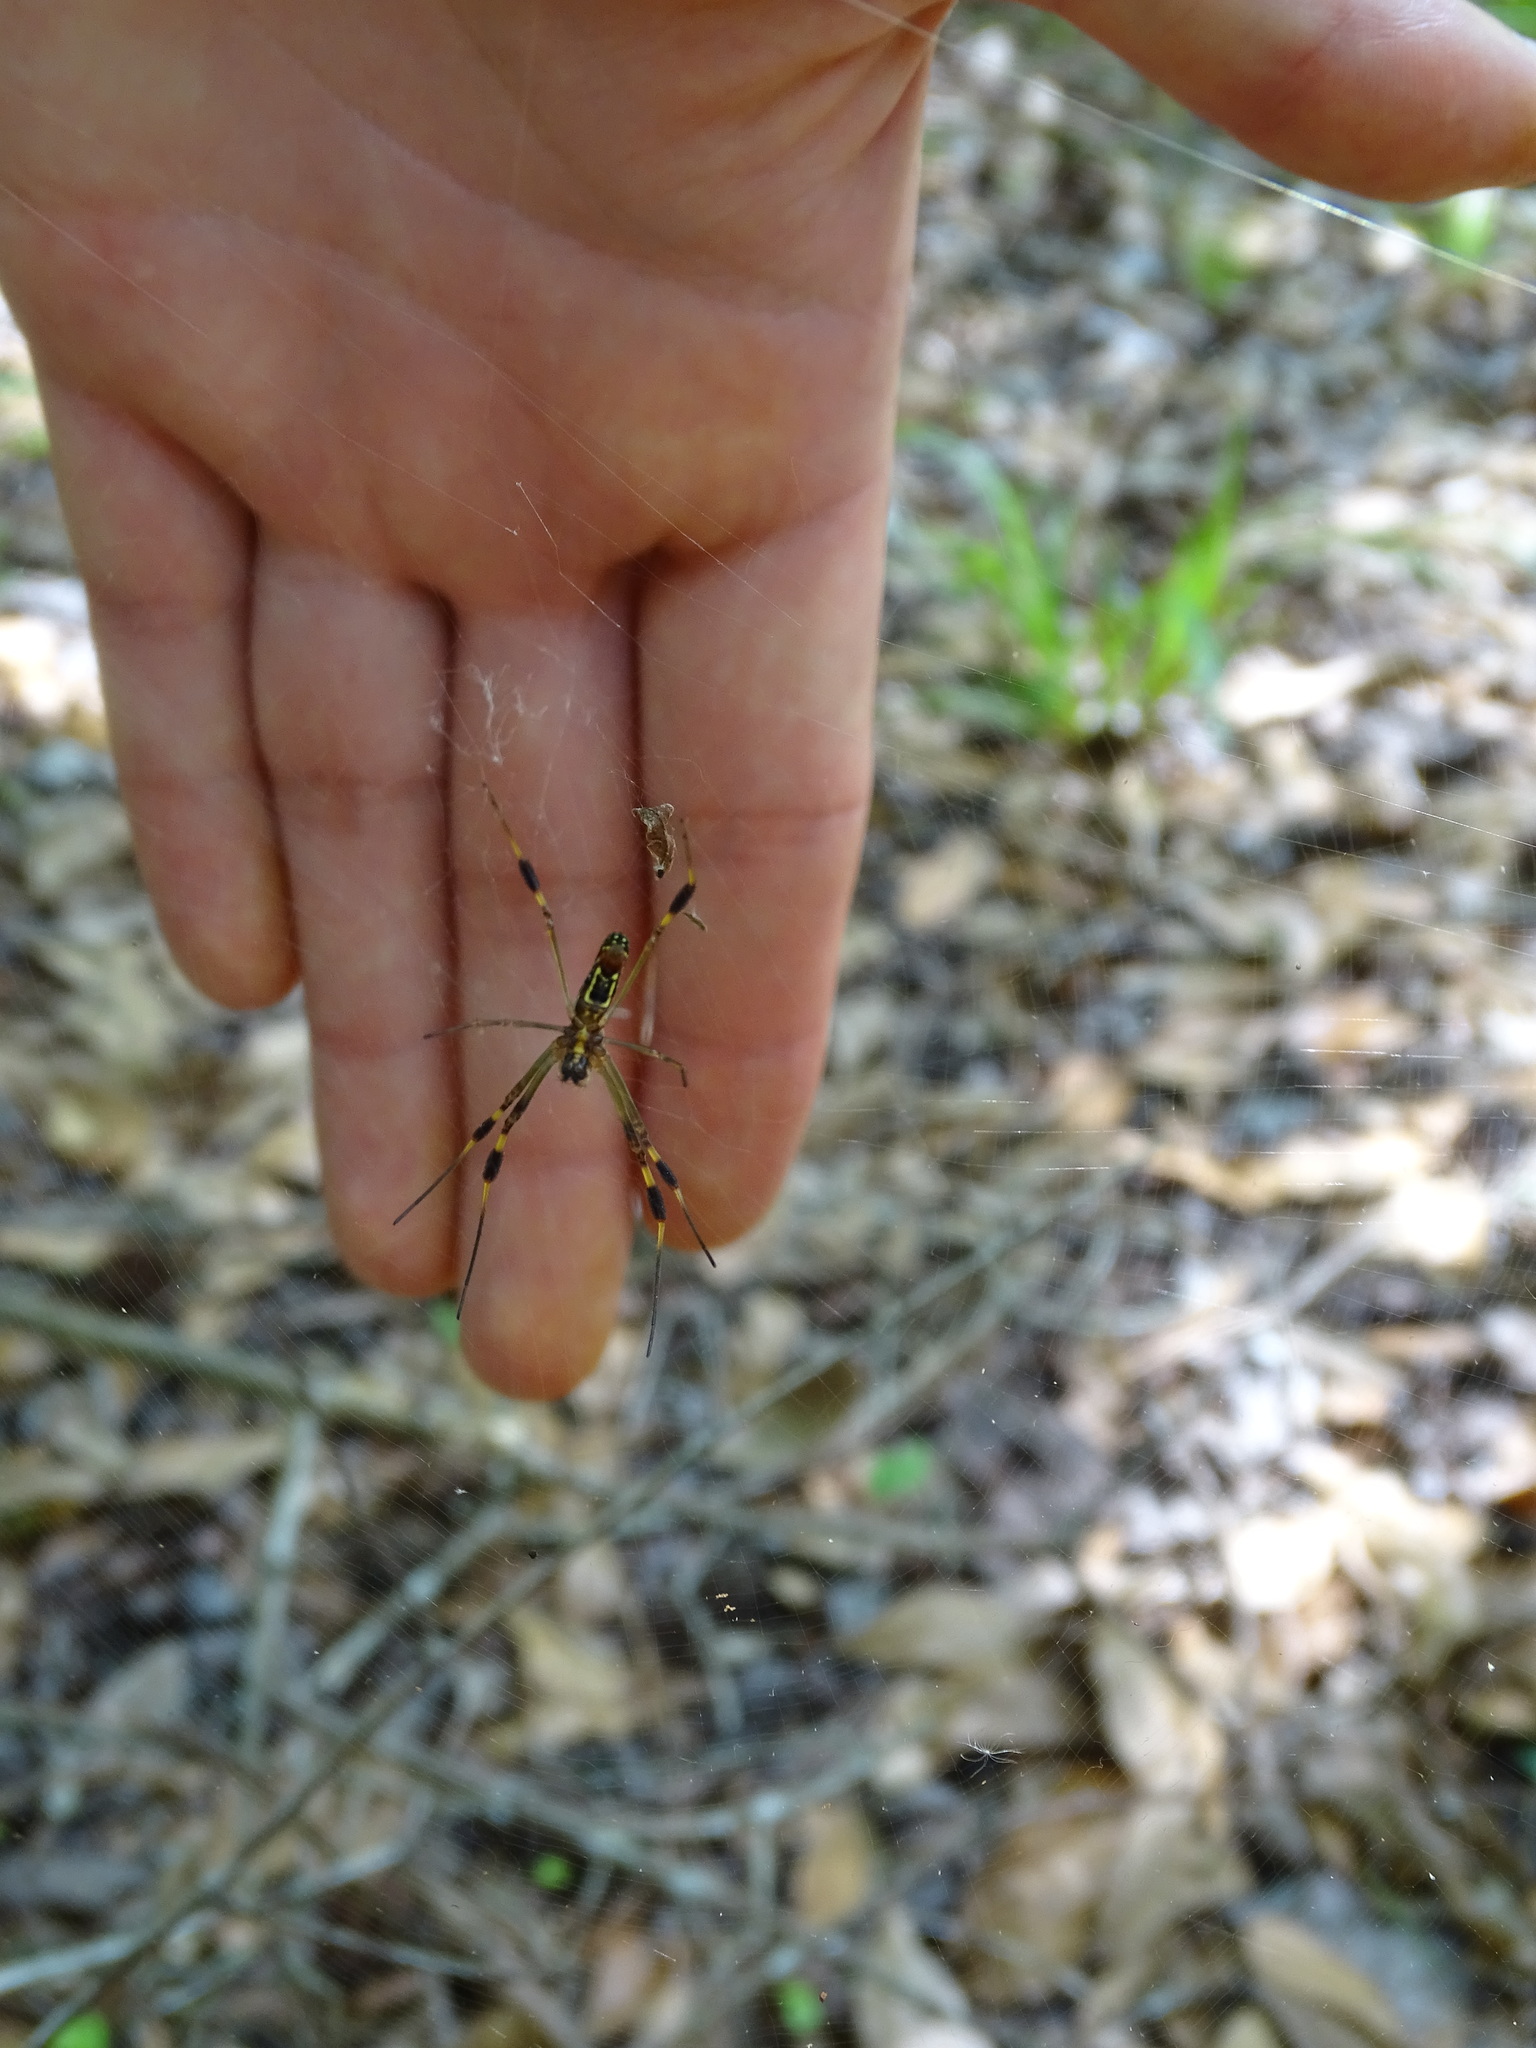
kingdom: Animalia
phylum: Arthropoda
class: Arachnida
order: Araneae
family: Araneidae
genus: Trichonephila
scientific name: Trichonephila clavipes
